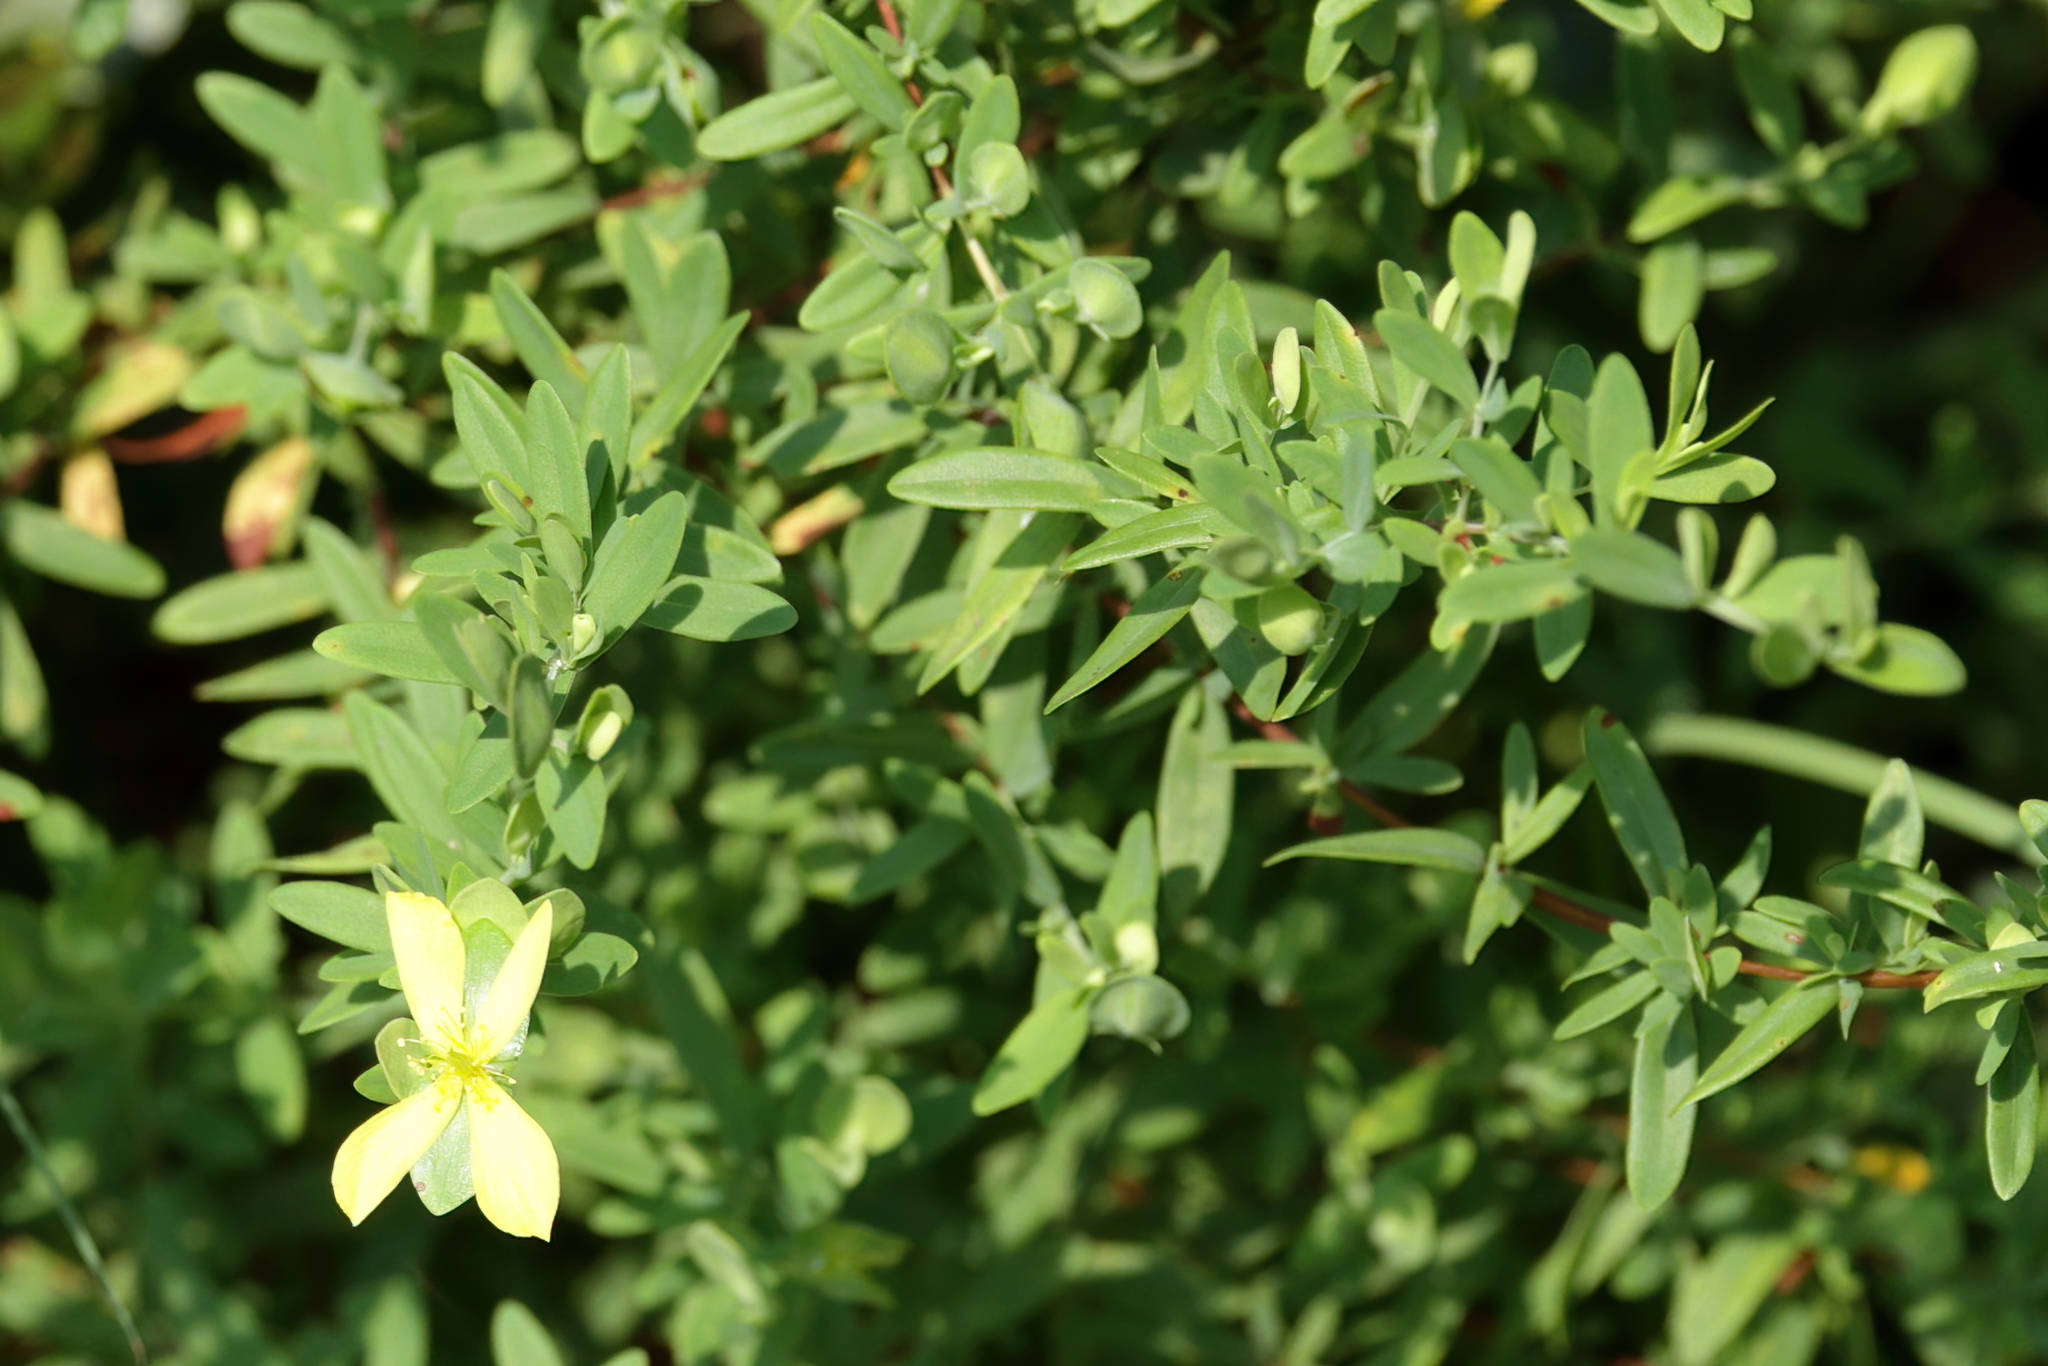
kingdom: Plantae
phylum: Tracheophyta
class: Magnoliopsida
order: Malpighiales
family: Hypericaceae
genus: Hypericum
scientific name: Hypericum hypericoides
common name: St. andrew's cross
